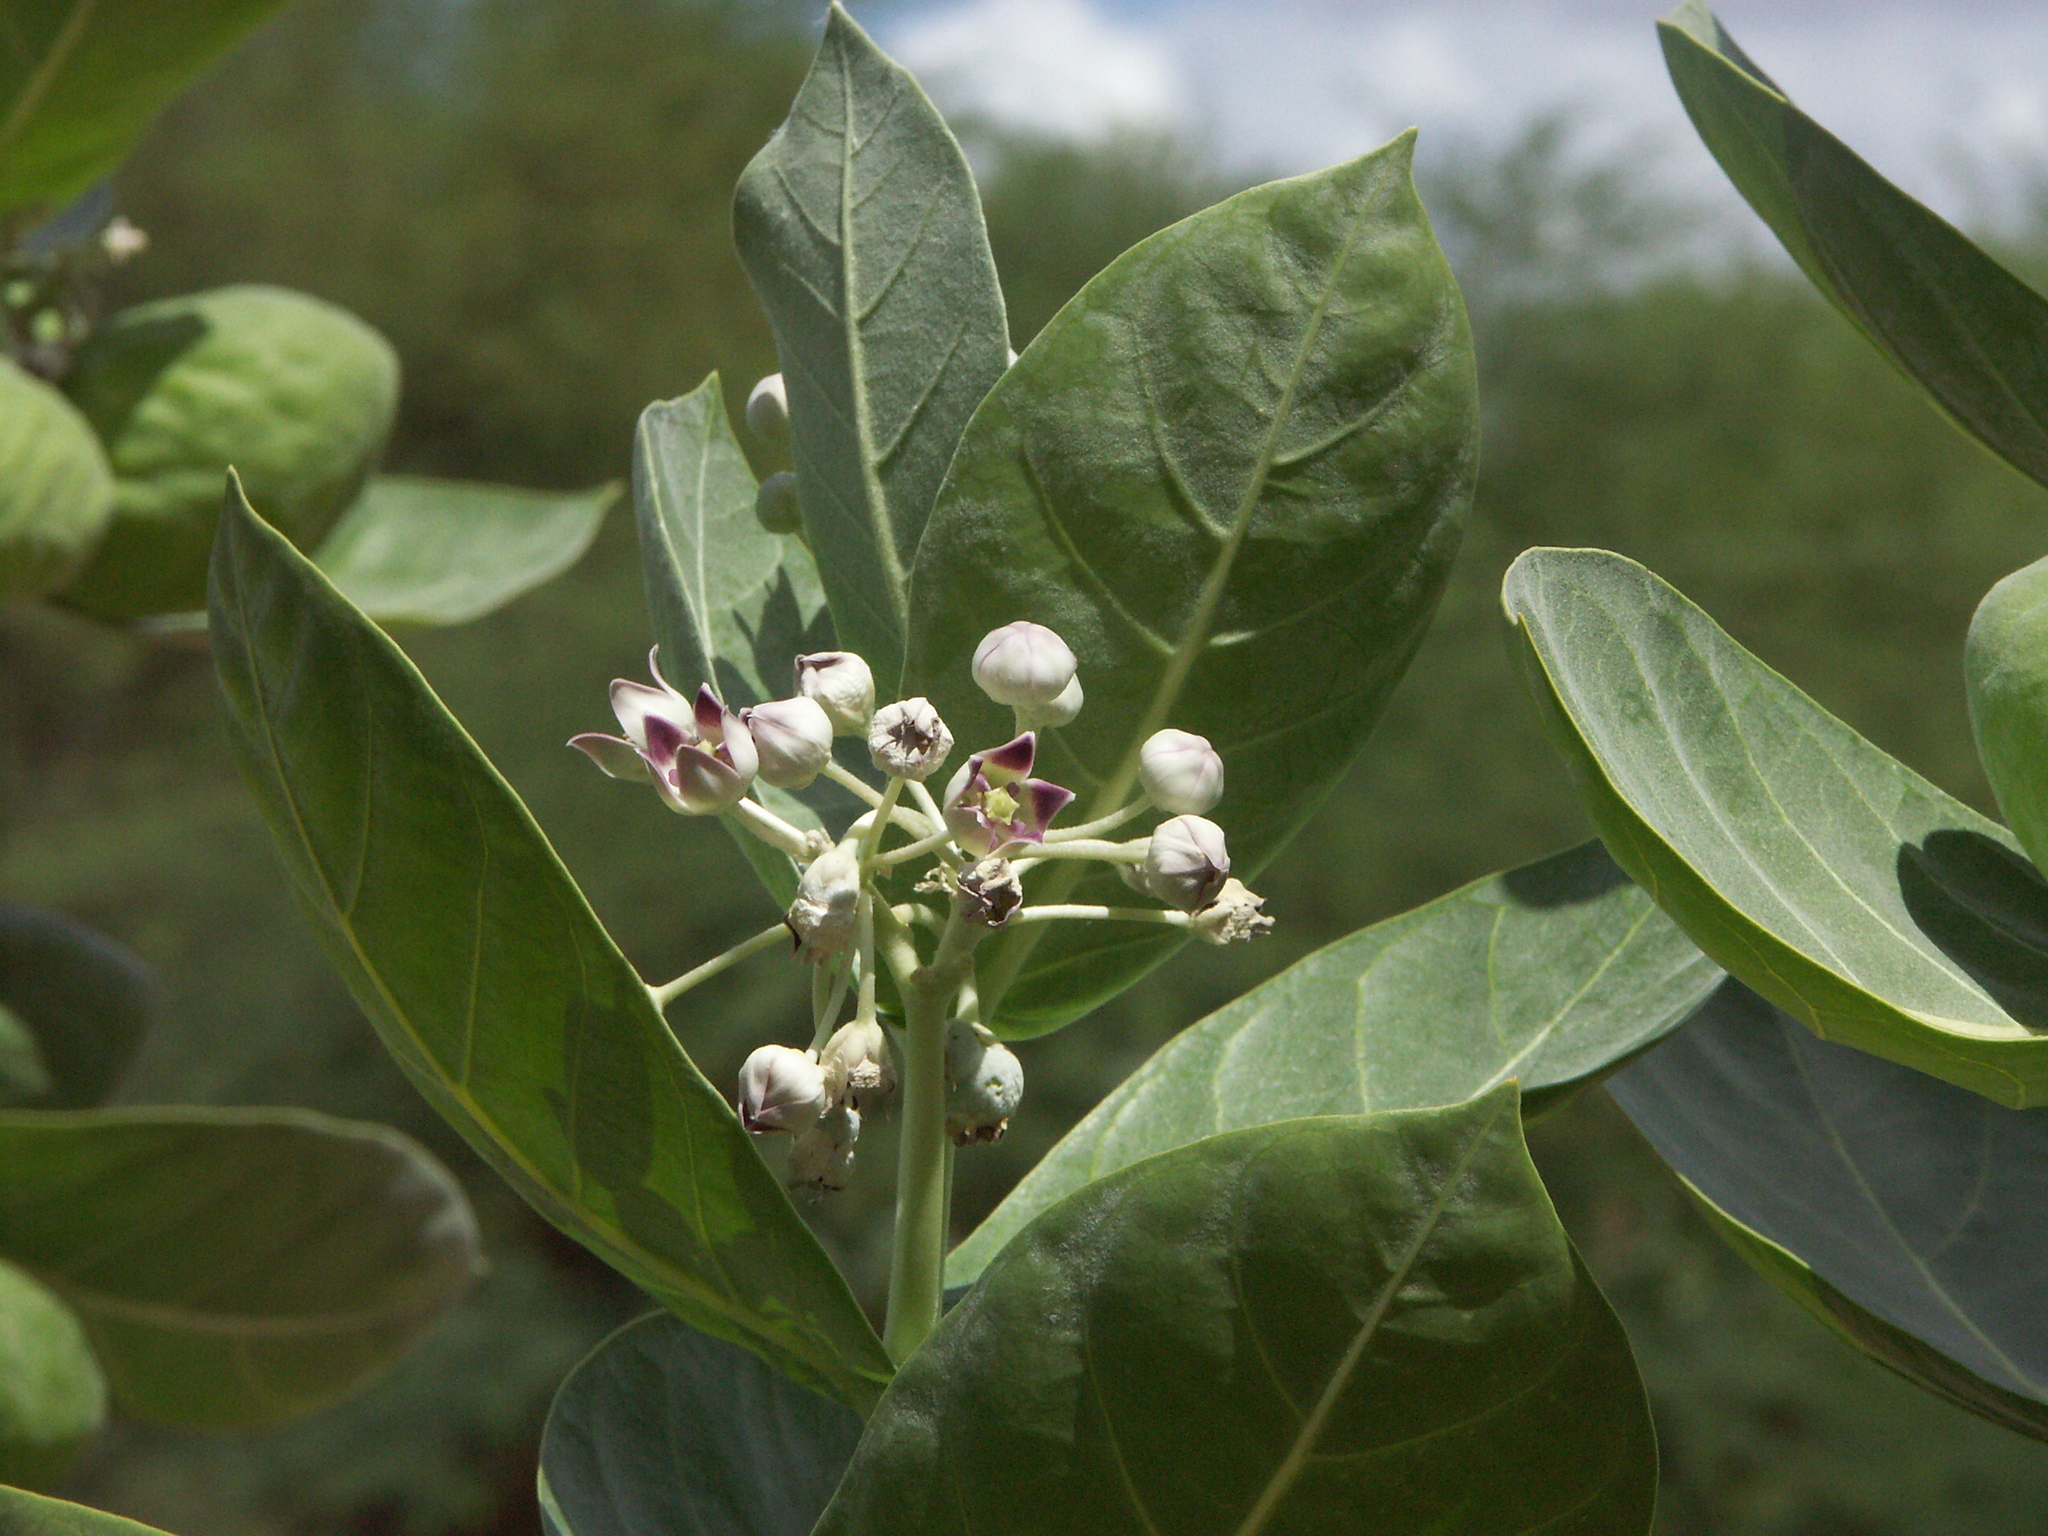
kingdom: Plantae
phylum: Tracheophyta
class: Magnoliopsida
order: Gentianales
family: Apocynaceae
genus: Calotropis
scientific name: Calotropis procera
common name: Roostertree
